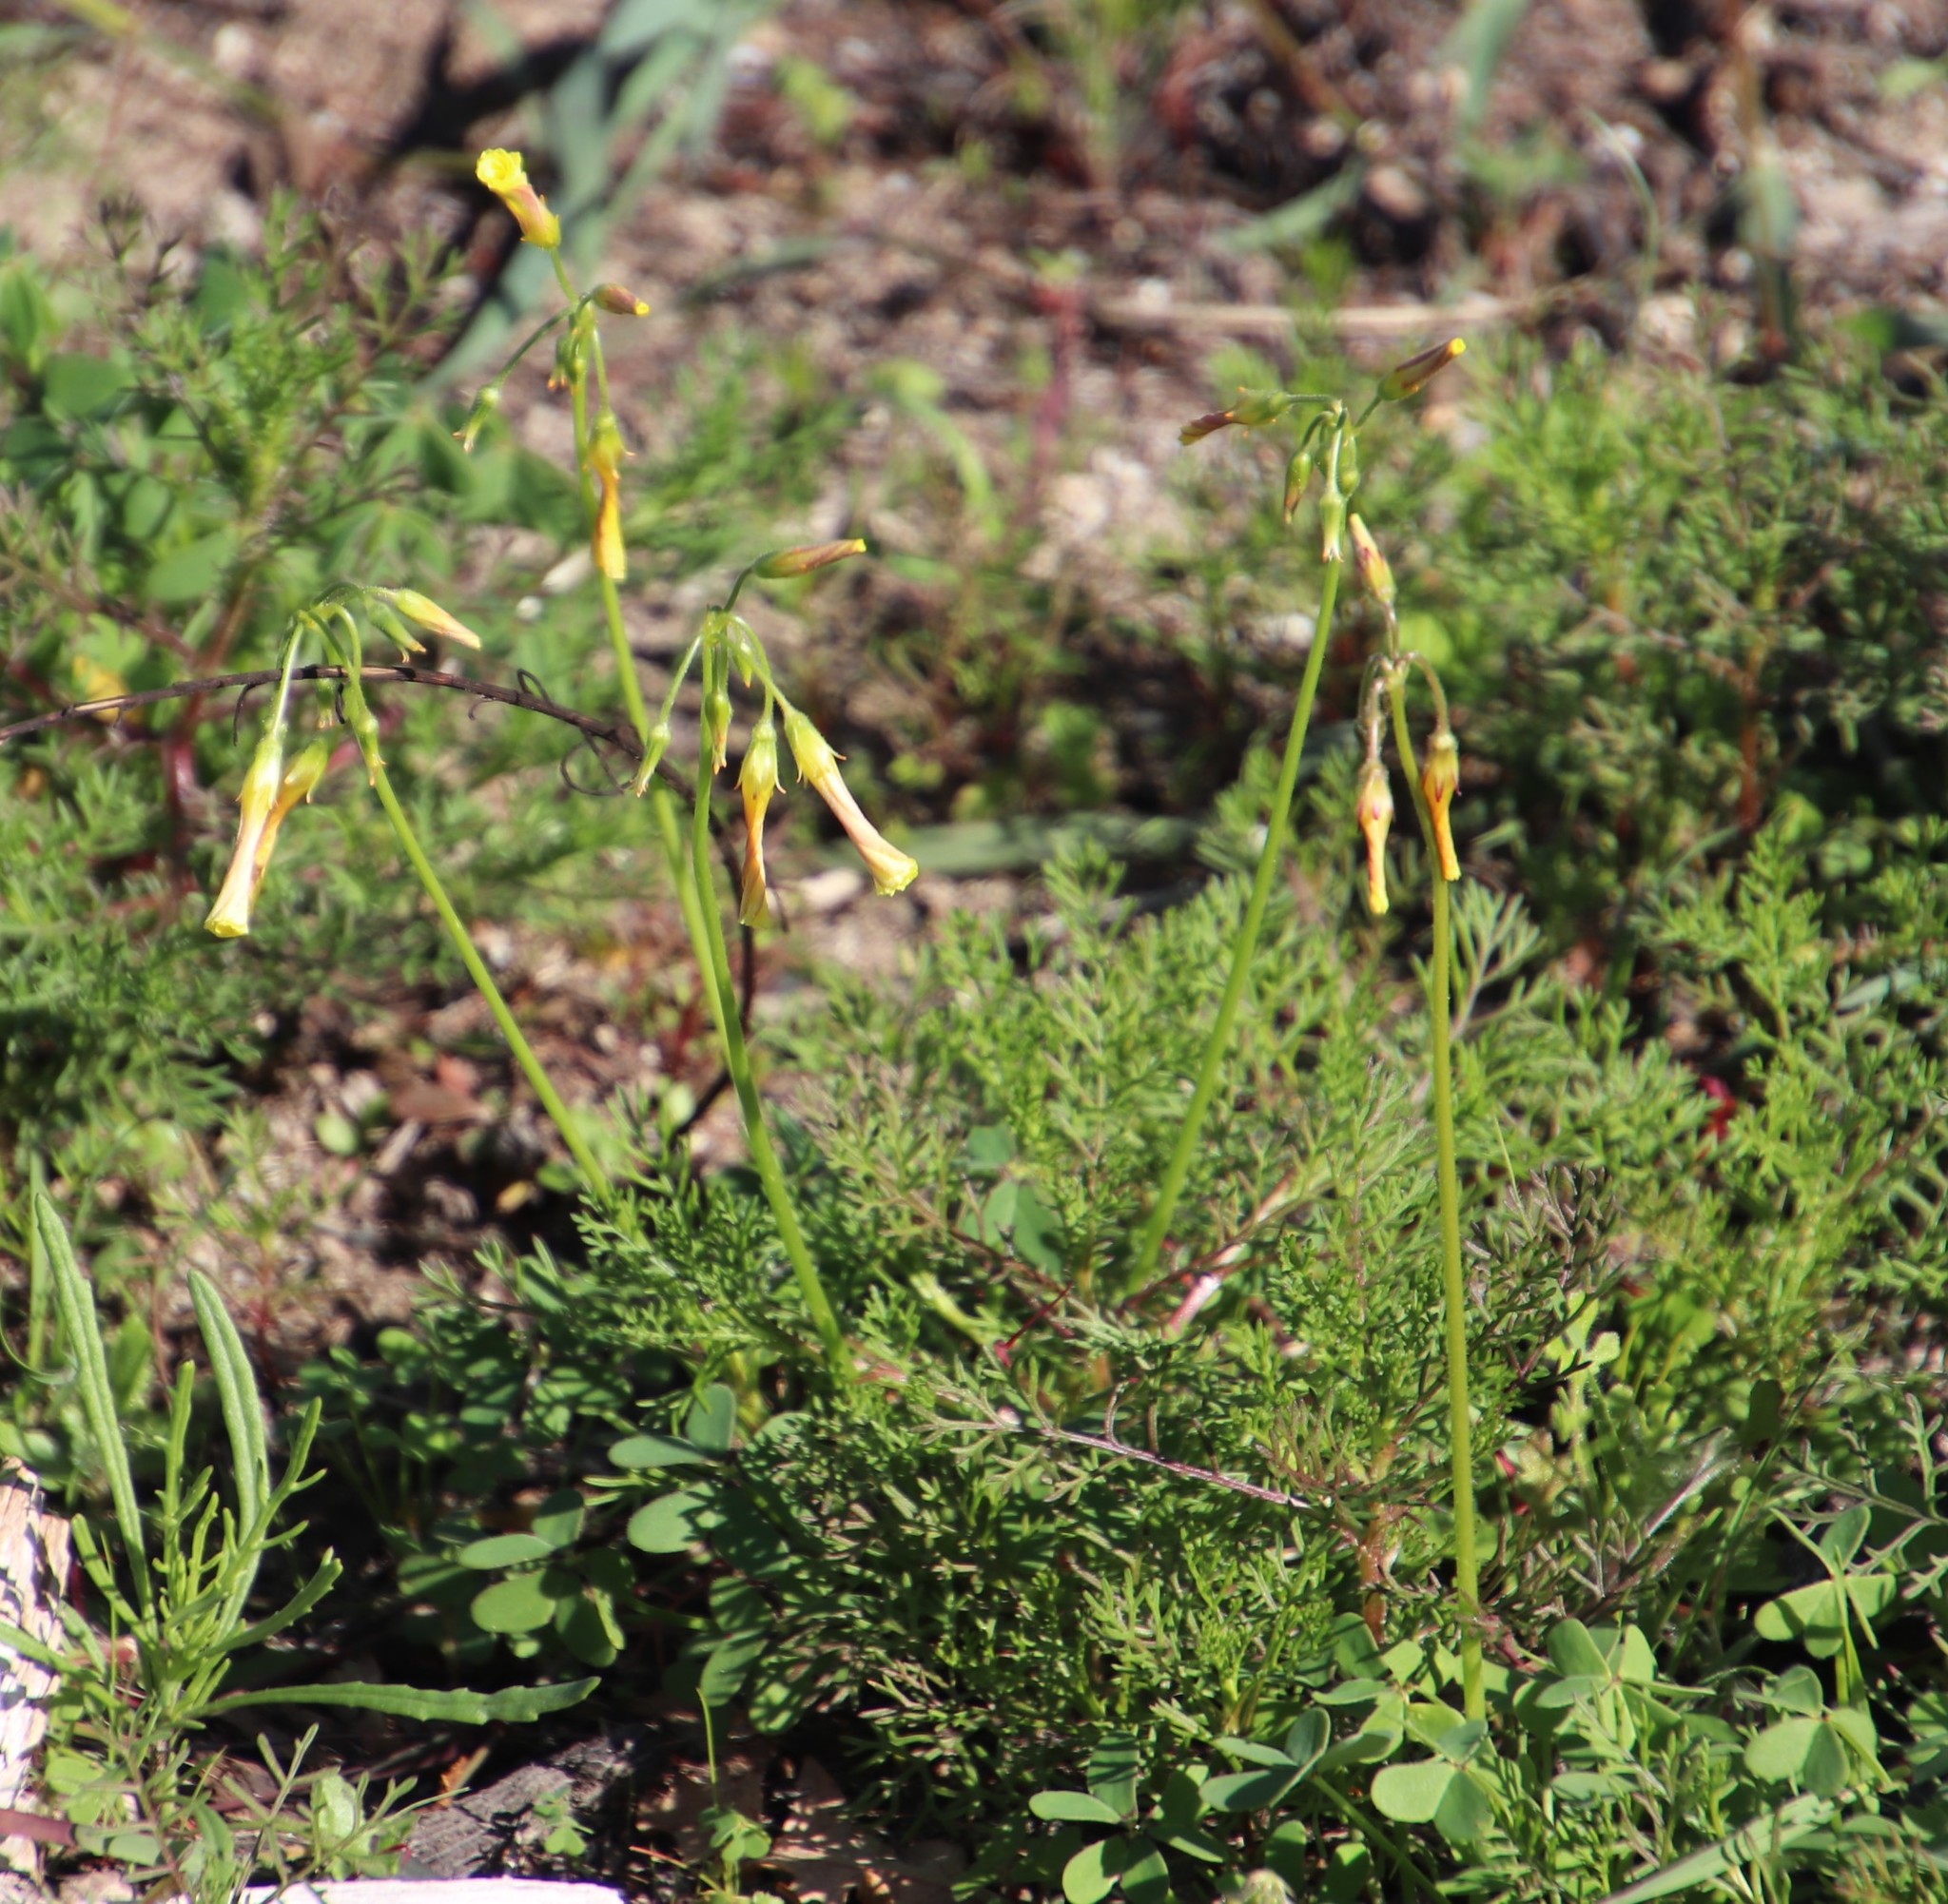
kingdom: Plantae
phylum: Tracheophyta
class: Magnoliopsida
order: Oxalidales
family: Oxalidaceae
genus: Oxalis
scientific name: Oxalis pes-caprae
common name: Bermuda-buttercup
